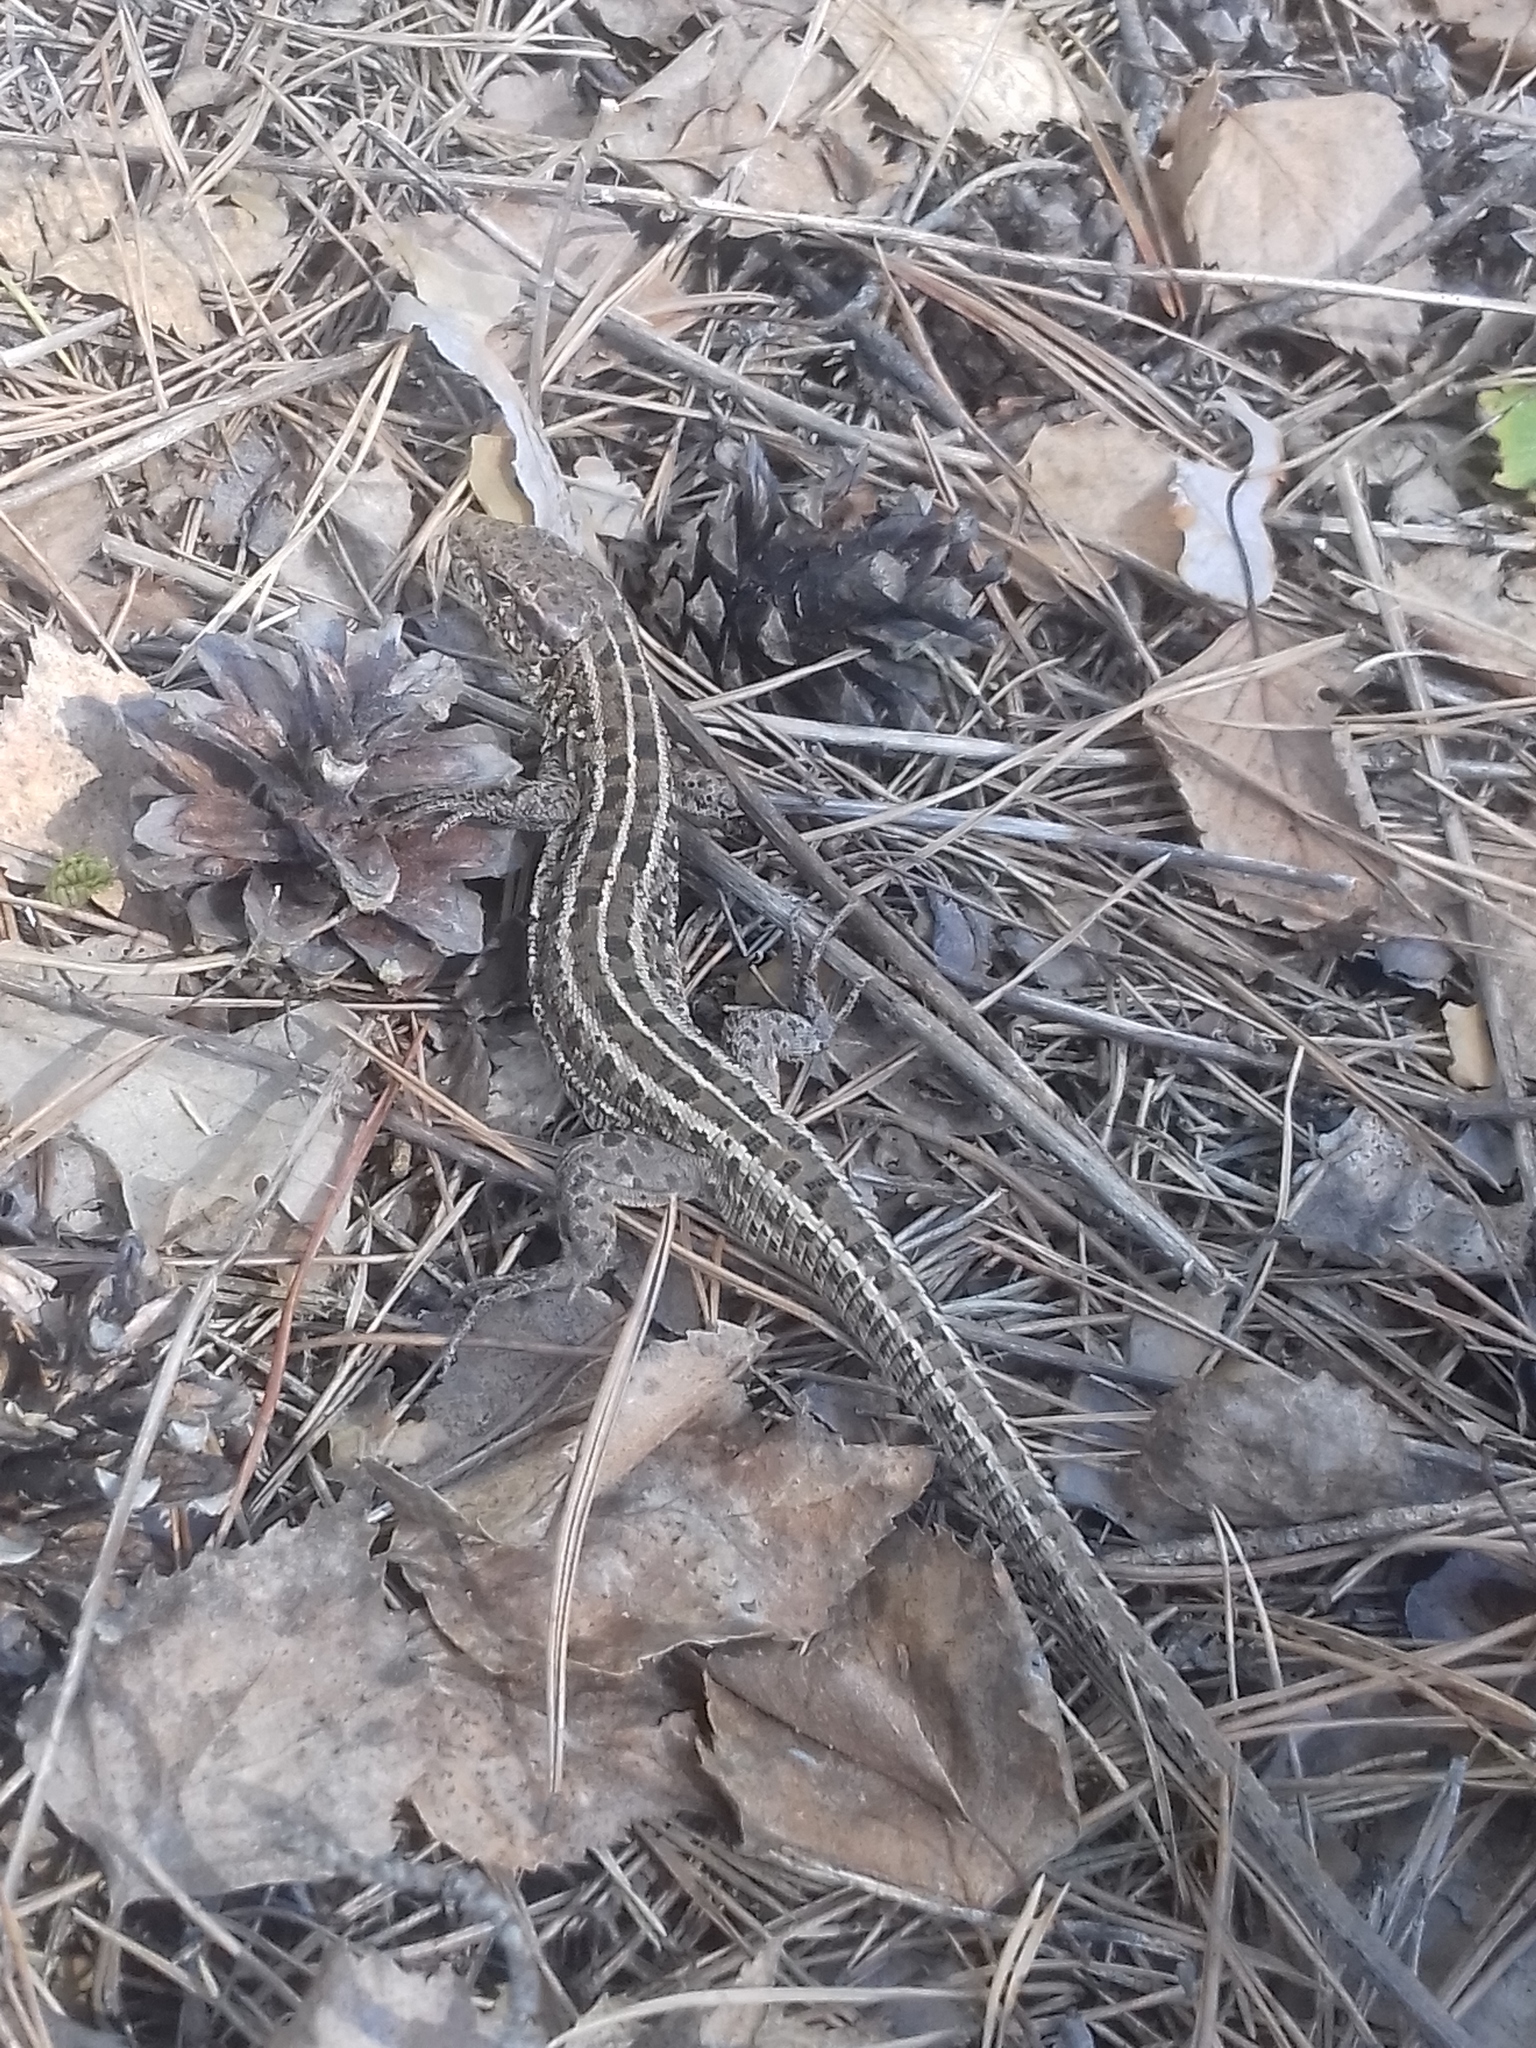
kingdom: Animalia
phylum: Chordata
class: Squamata
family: Lacertidae
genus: Lacerta
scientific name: Lacerta agilis
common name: Sand lizard
